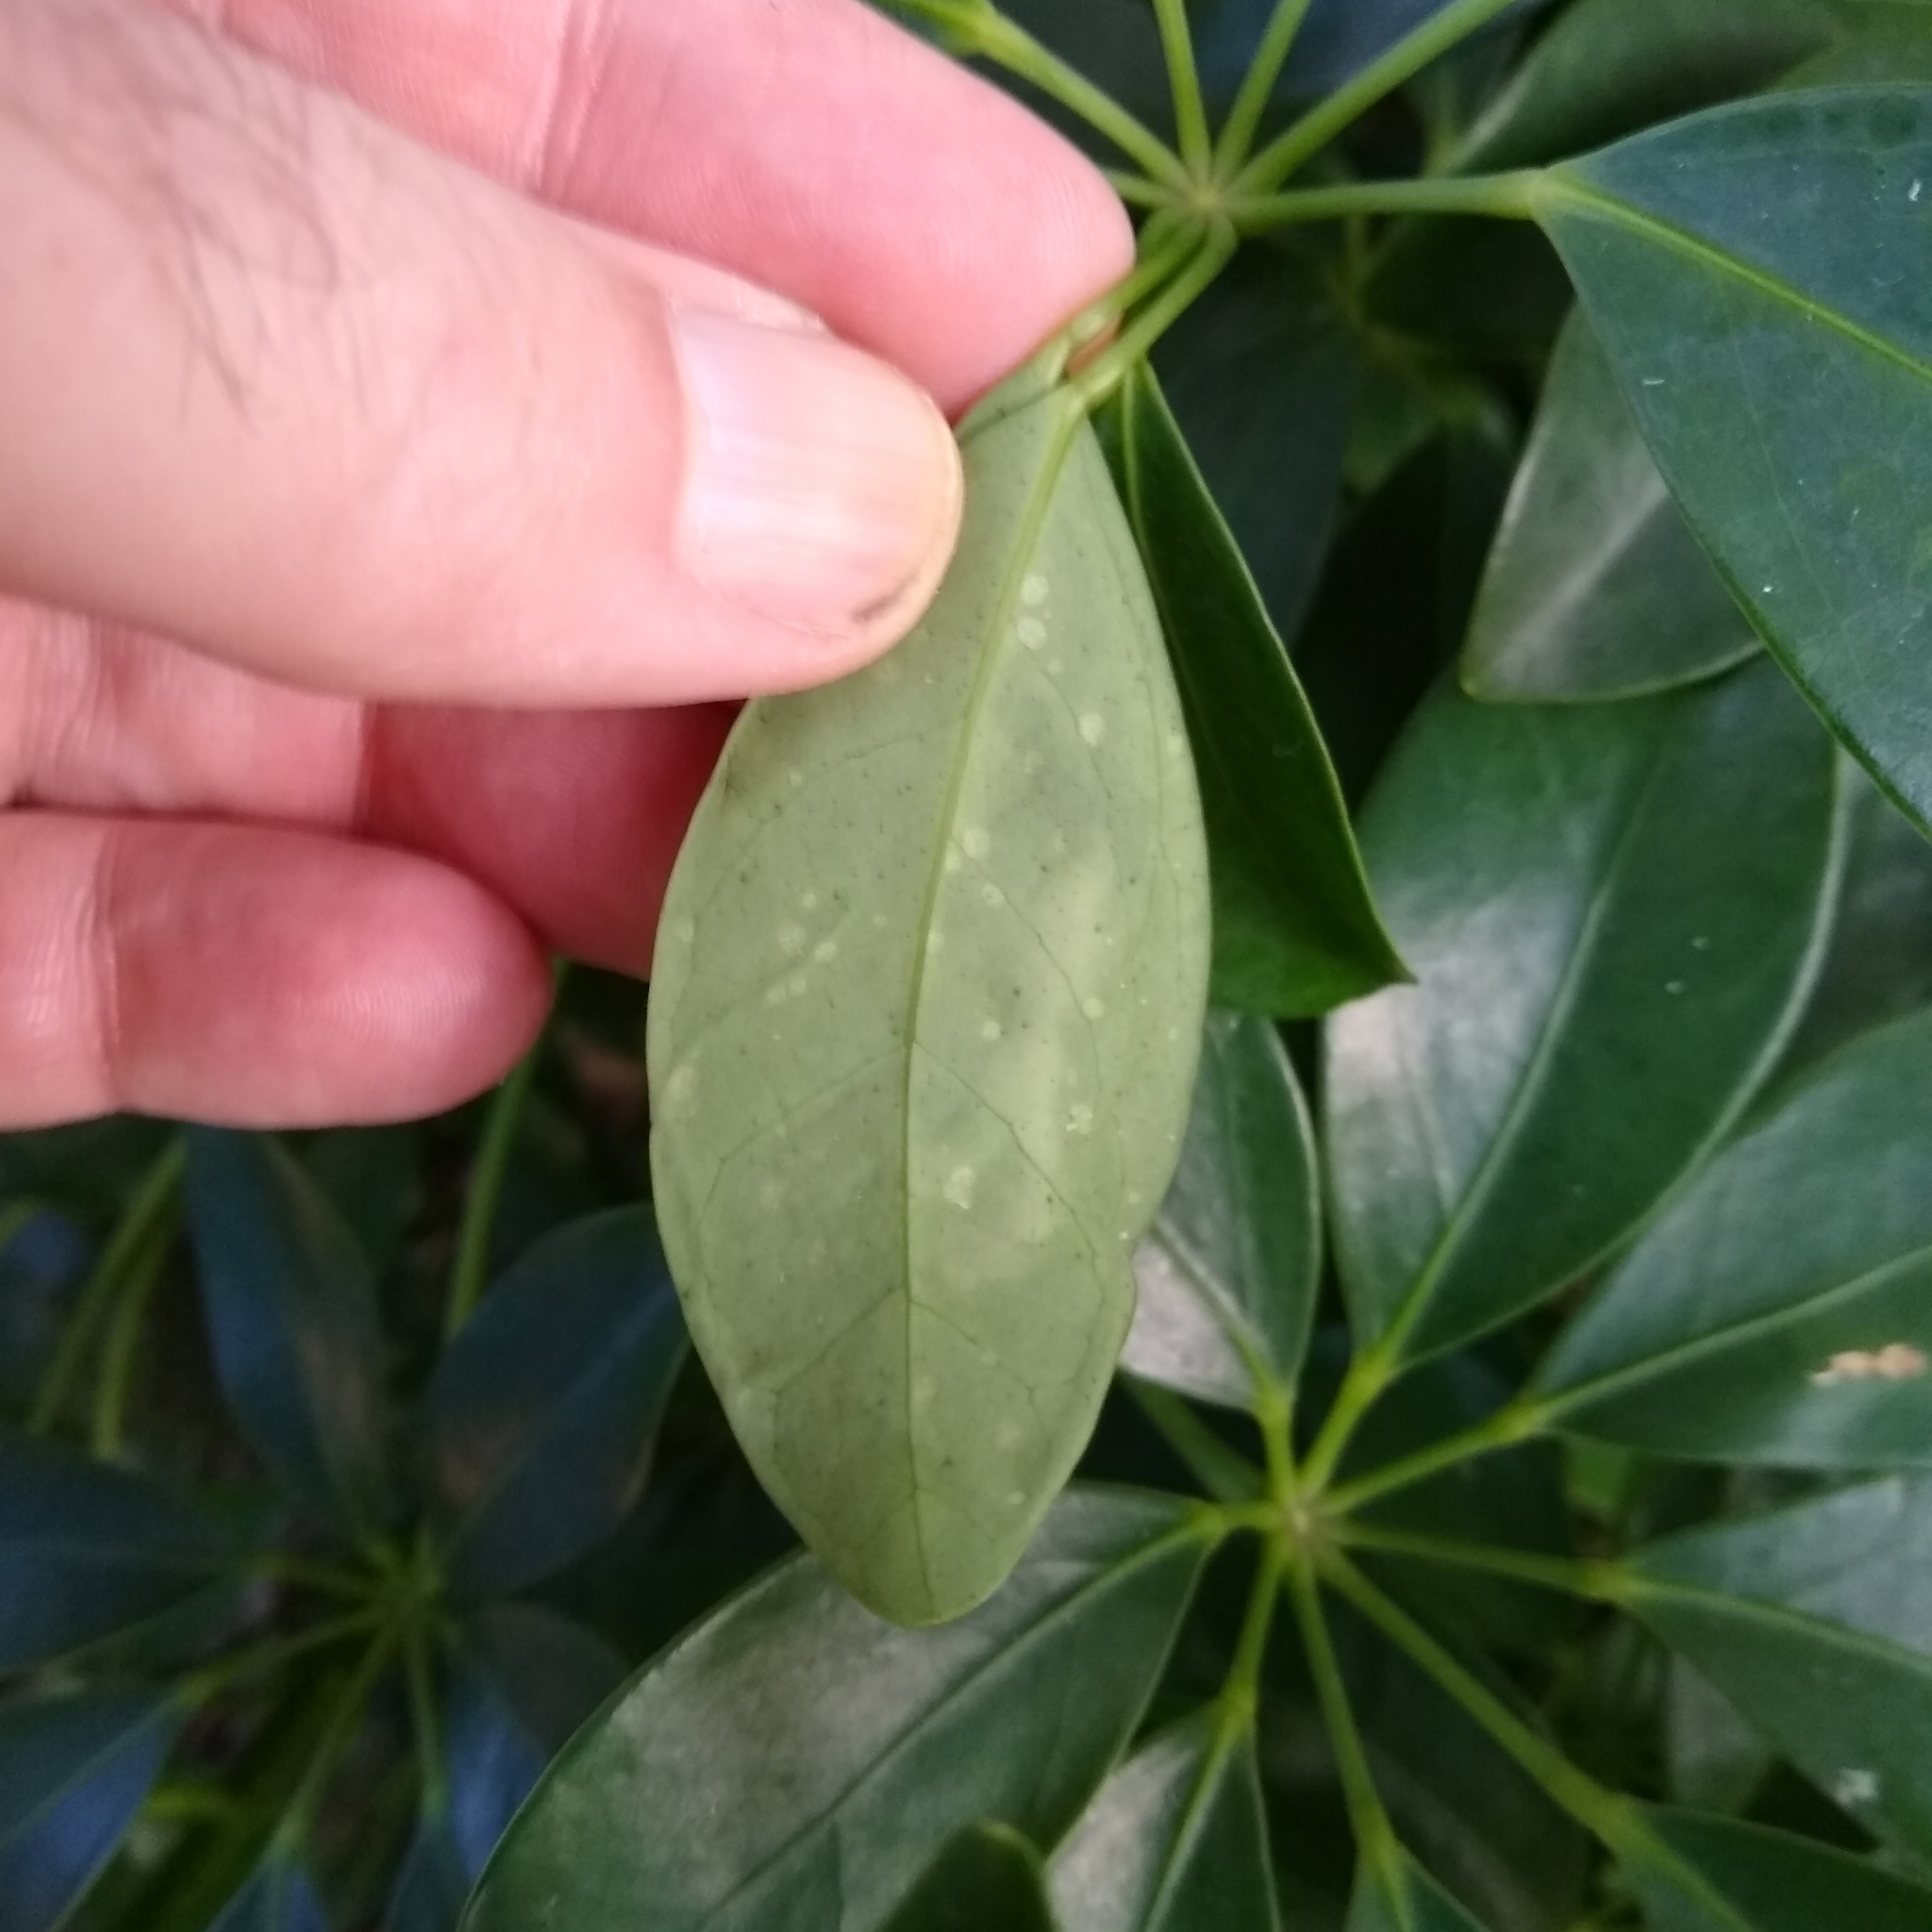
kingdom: Animalia
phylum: Arthropoda
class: Insecta
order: Diptera
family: Agromyzidae
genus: Liriomyza
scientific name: Liriomyza schmidti
